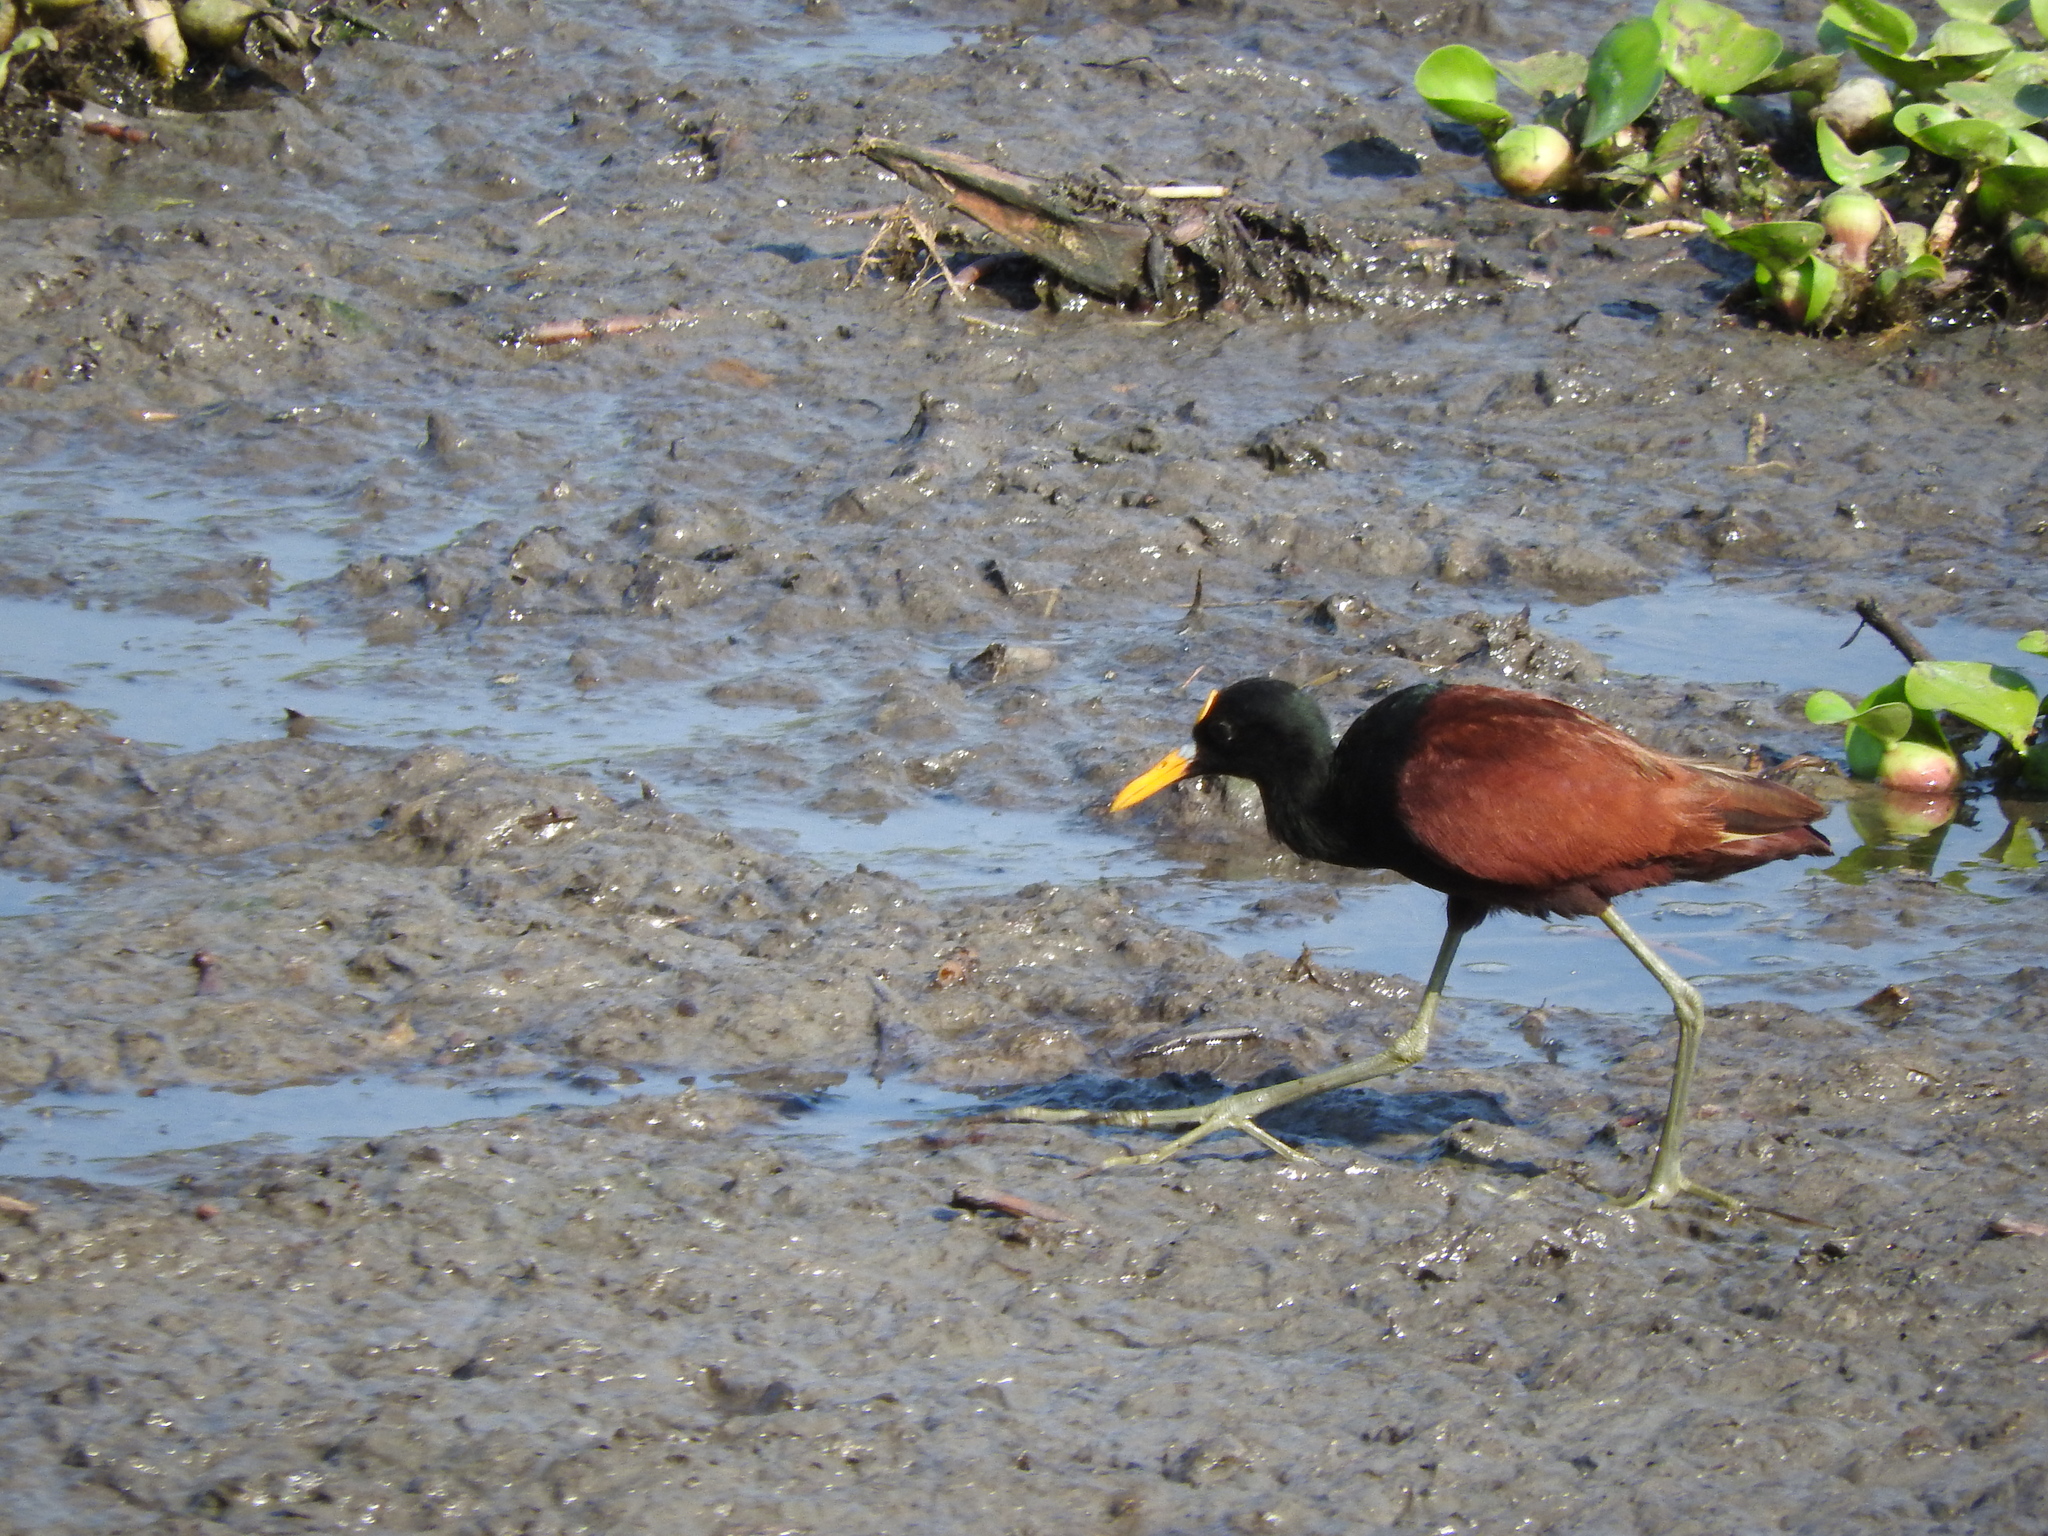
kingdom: Animalia
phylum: Chordata
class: Aves
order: Charadriiformes
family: Jacanidae
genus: Jacana
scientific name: Jacana spinosa
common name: Northern jacana
